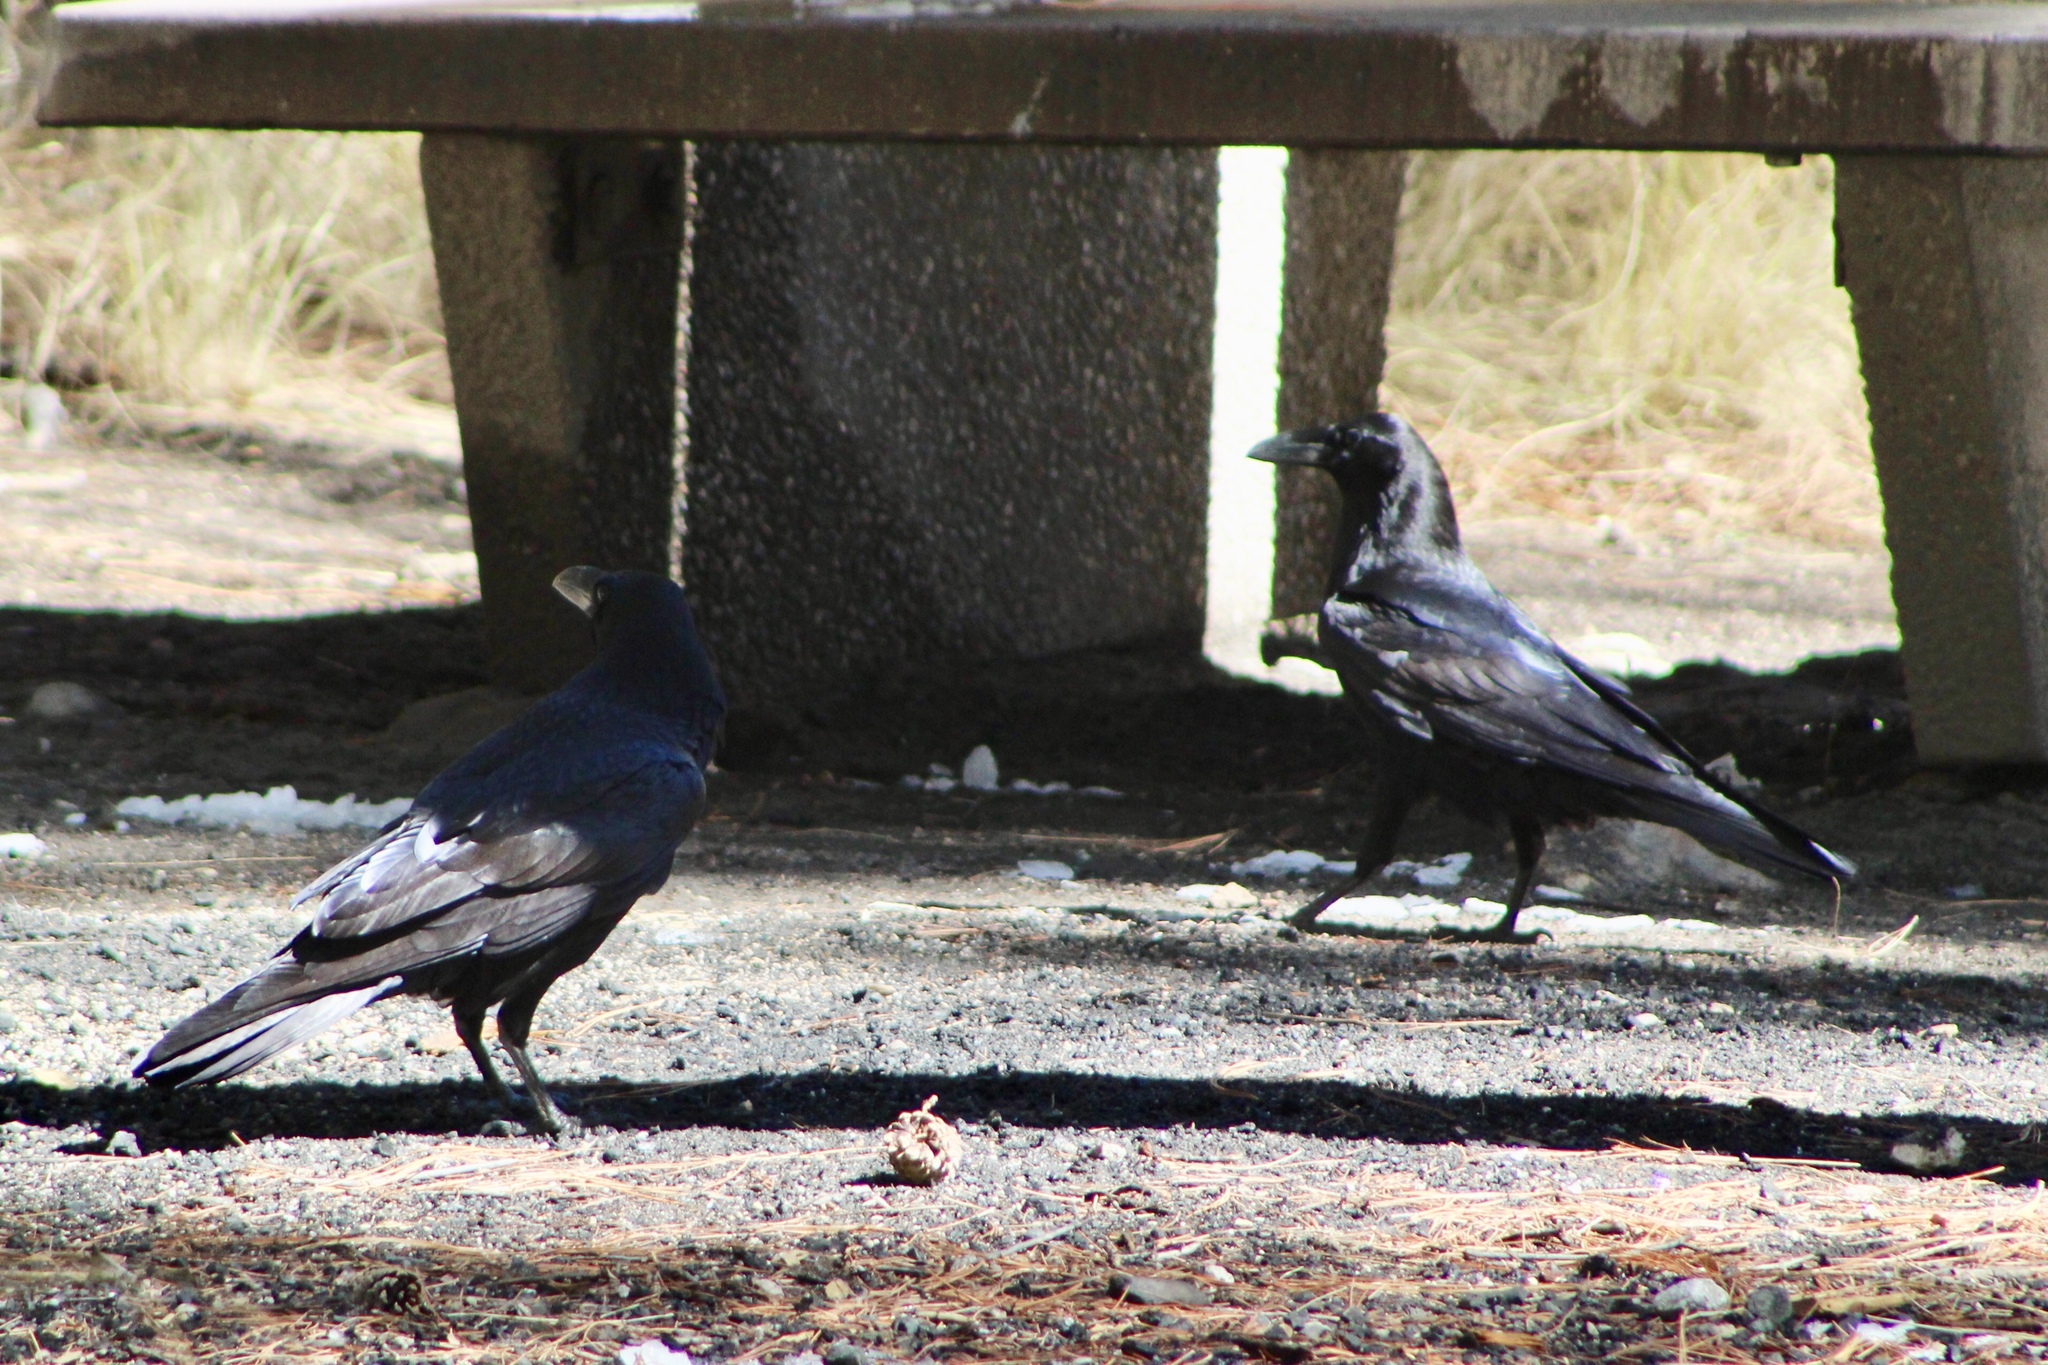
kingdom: Animalia
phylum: Chordata
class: Aves
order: Passeriformes
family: Corvidae
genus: Corvus
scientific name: Corvus corax
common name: Common raven
